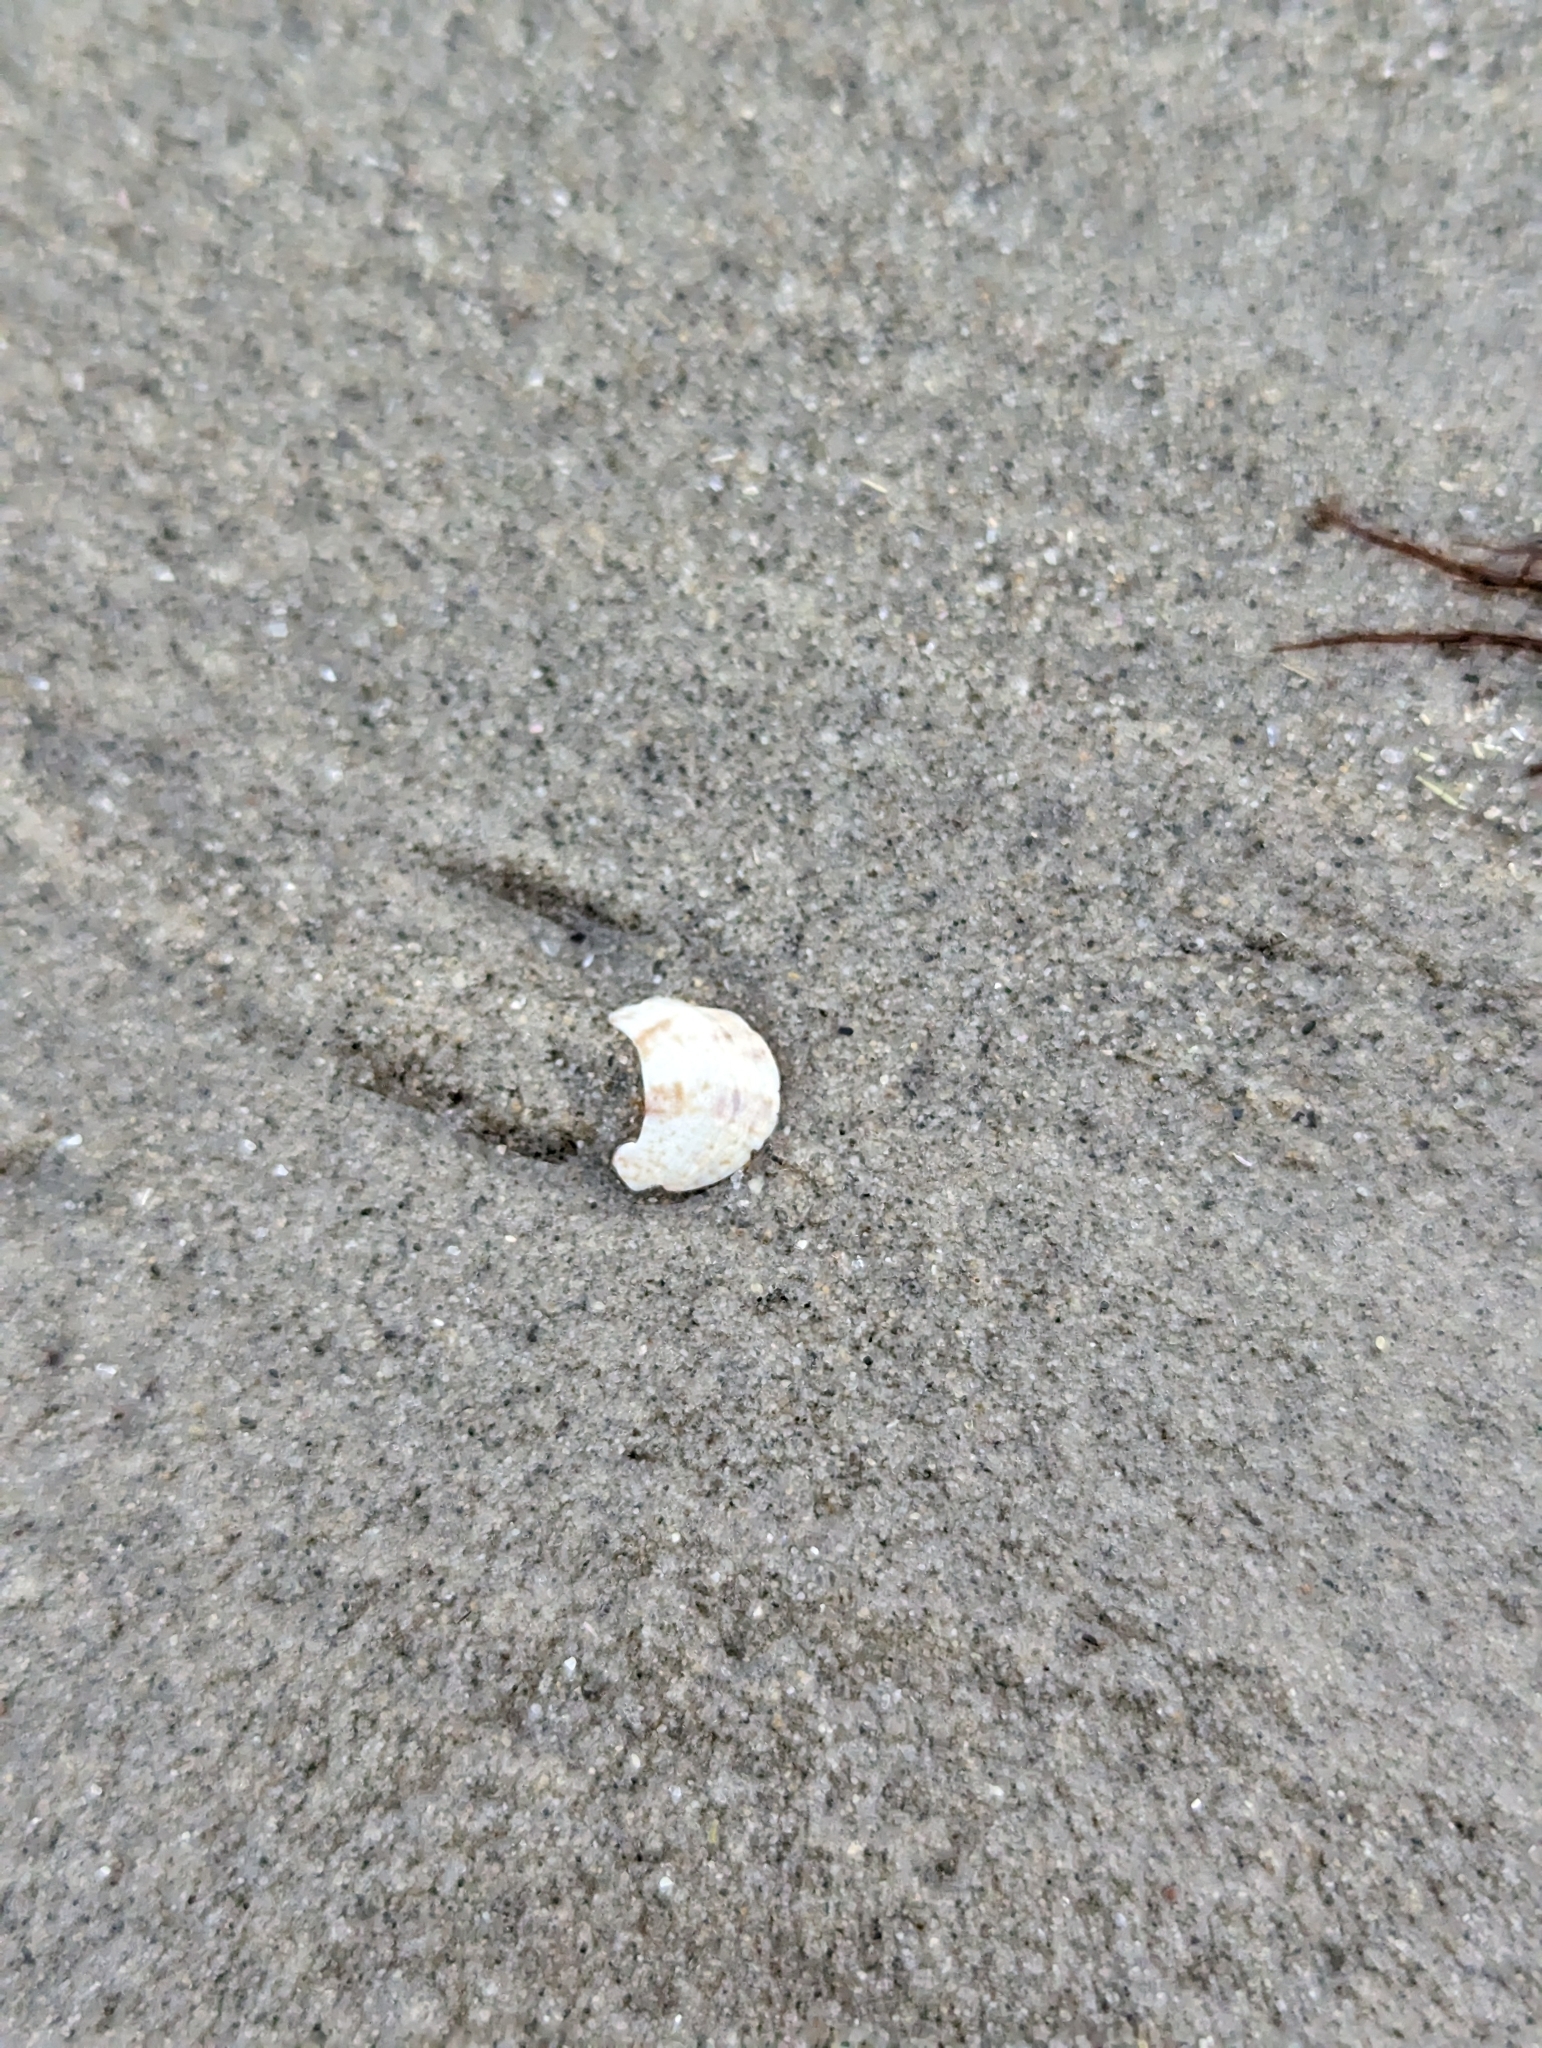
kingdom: Animalia
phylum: Mollusca
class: Gastropoda
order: Littorinimorpha
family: Calyptraeidae
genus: Crepidula
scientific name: Crepidula fornicata
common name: Slipper limpet
